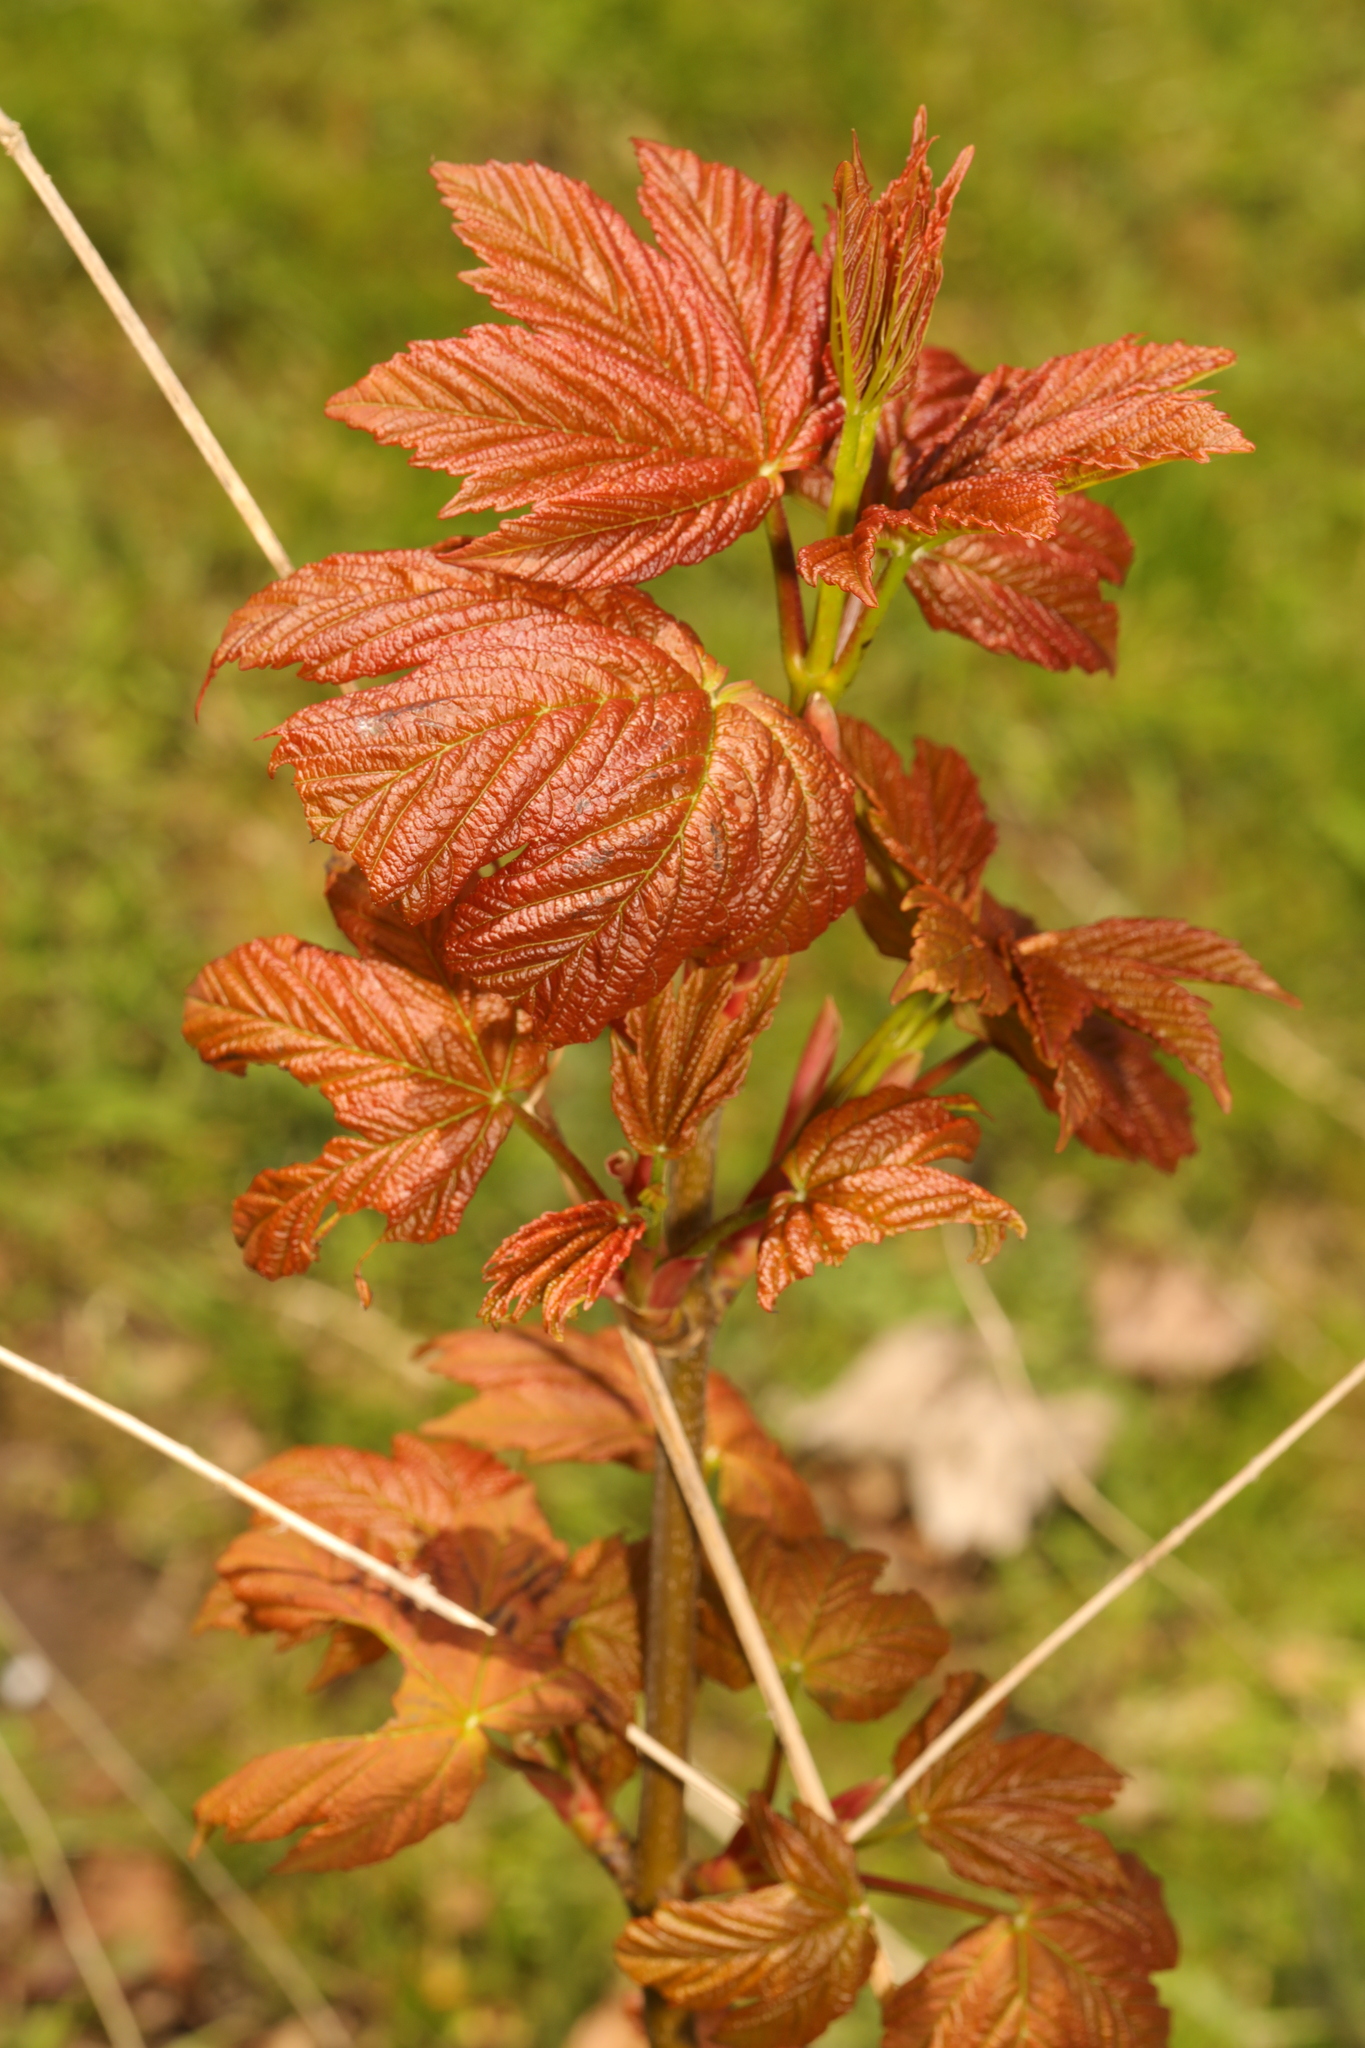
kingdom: Plantae
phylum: Tracheophyta
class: Magnoliopsida
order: Sapindales
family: Sapindaceae
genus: Acer
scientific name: Acer pseudoplatanus
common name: Sycamore
